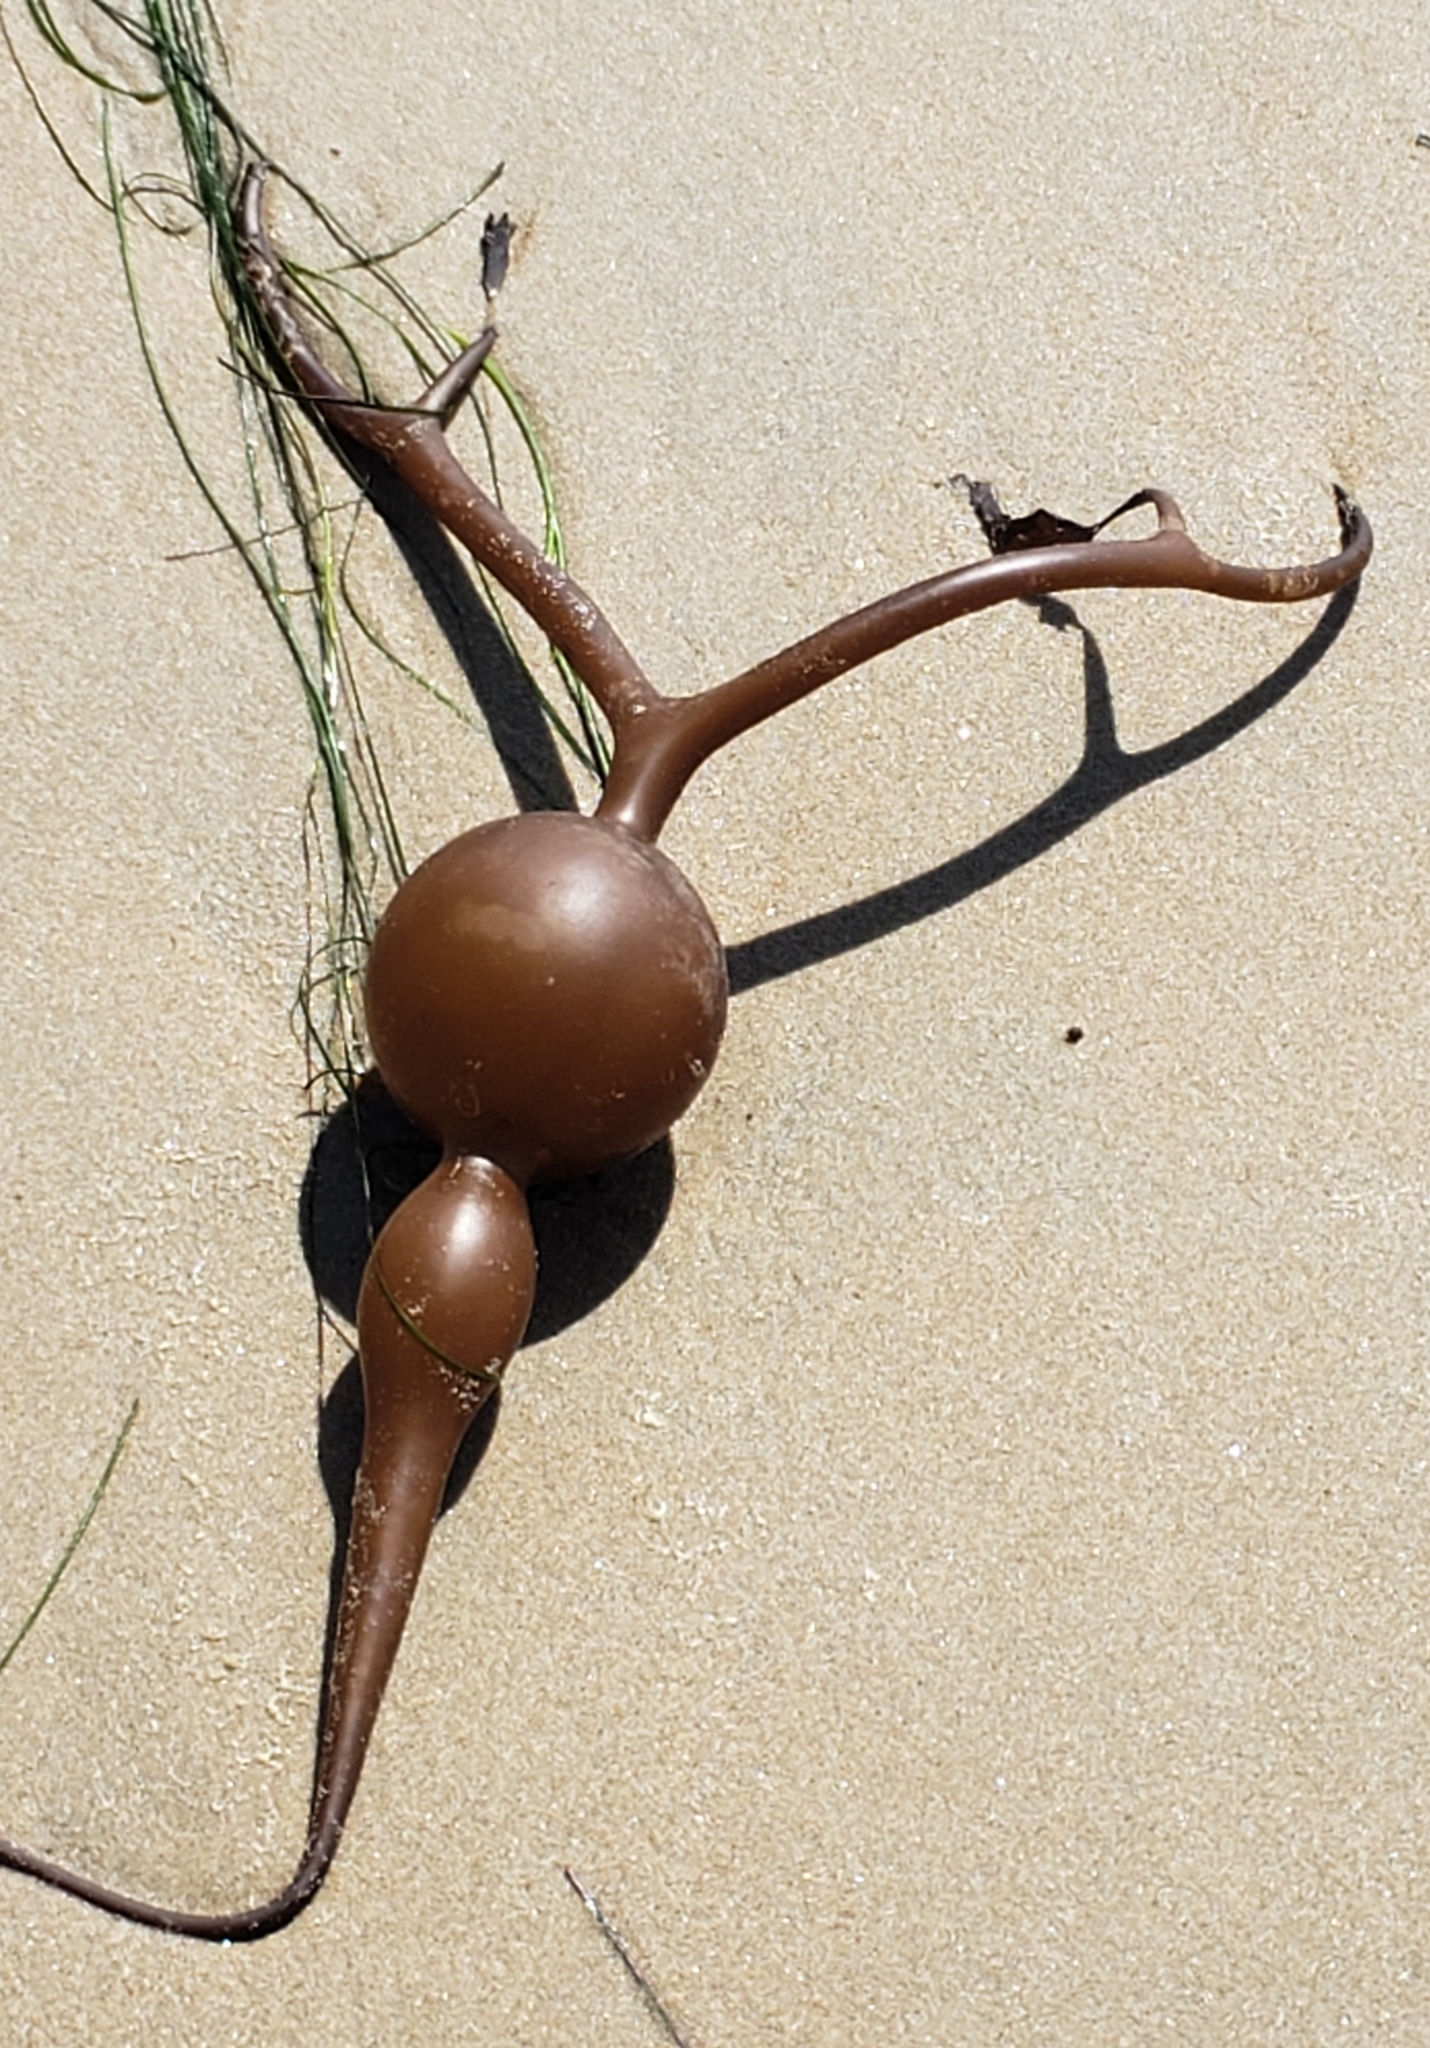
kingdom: Chromista
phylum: Ochrophyta
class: Phaeophyceae
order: Laminariales
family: Laminariaceae
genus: Pelagophycus
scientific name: Pelagophycus porra
